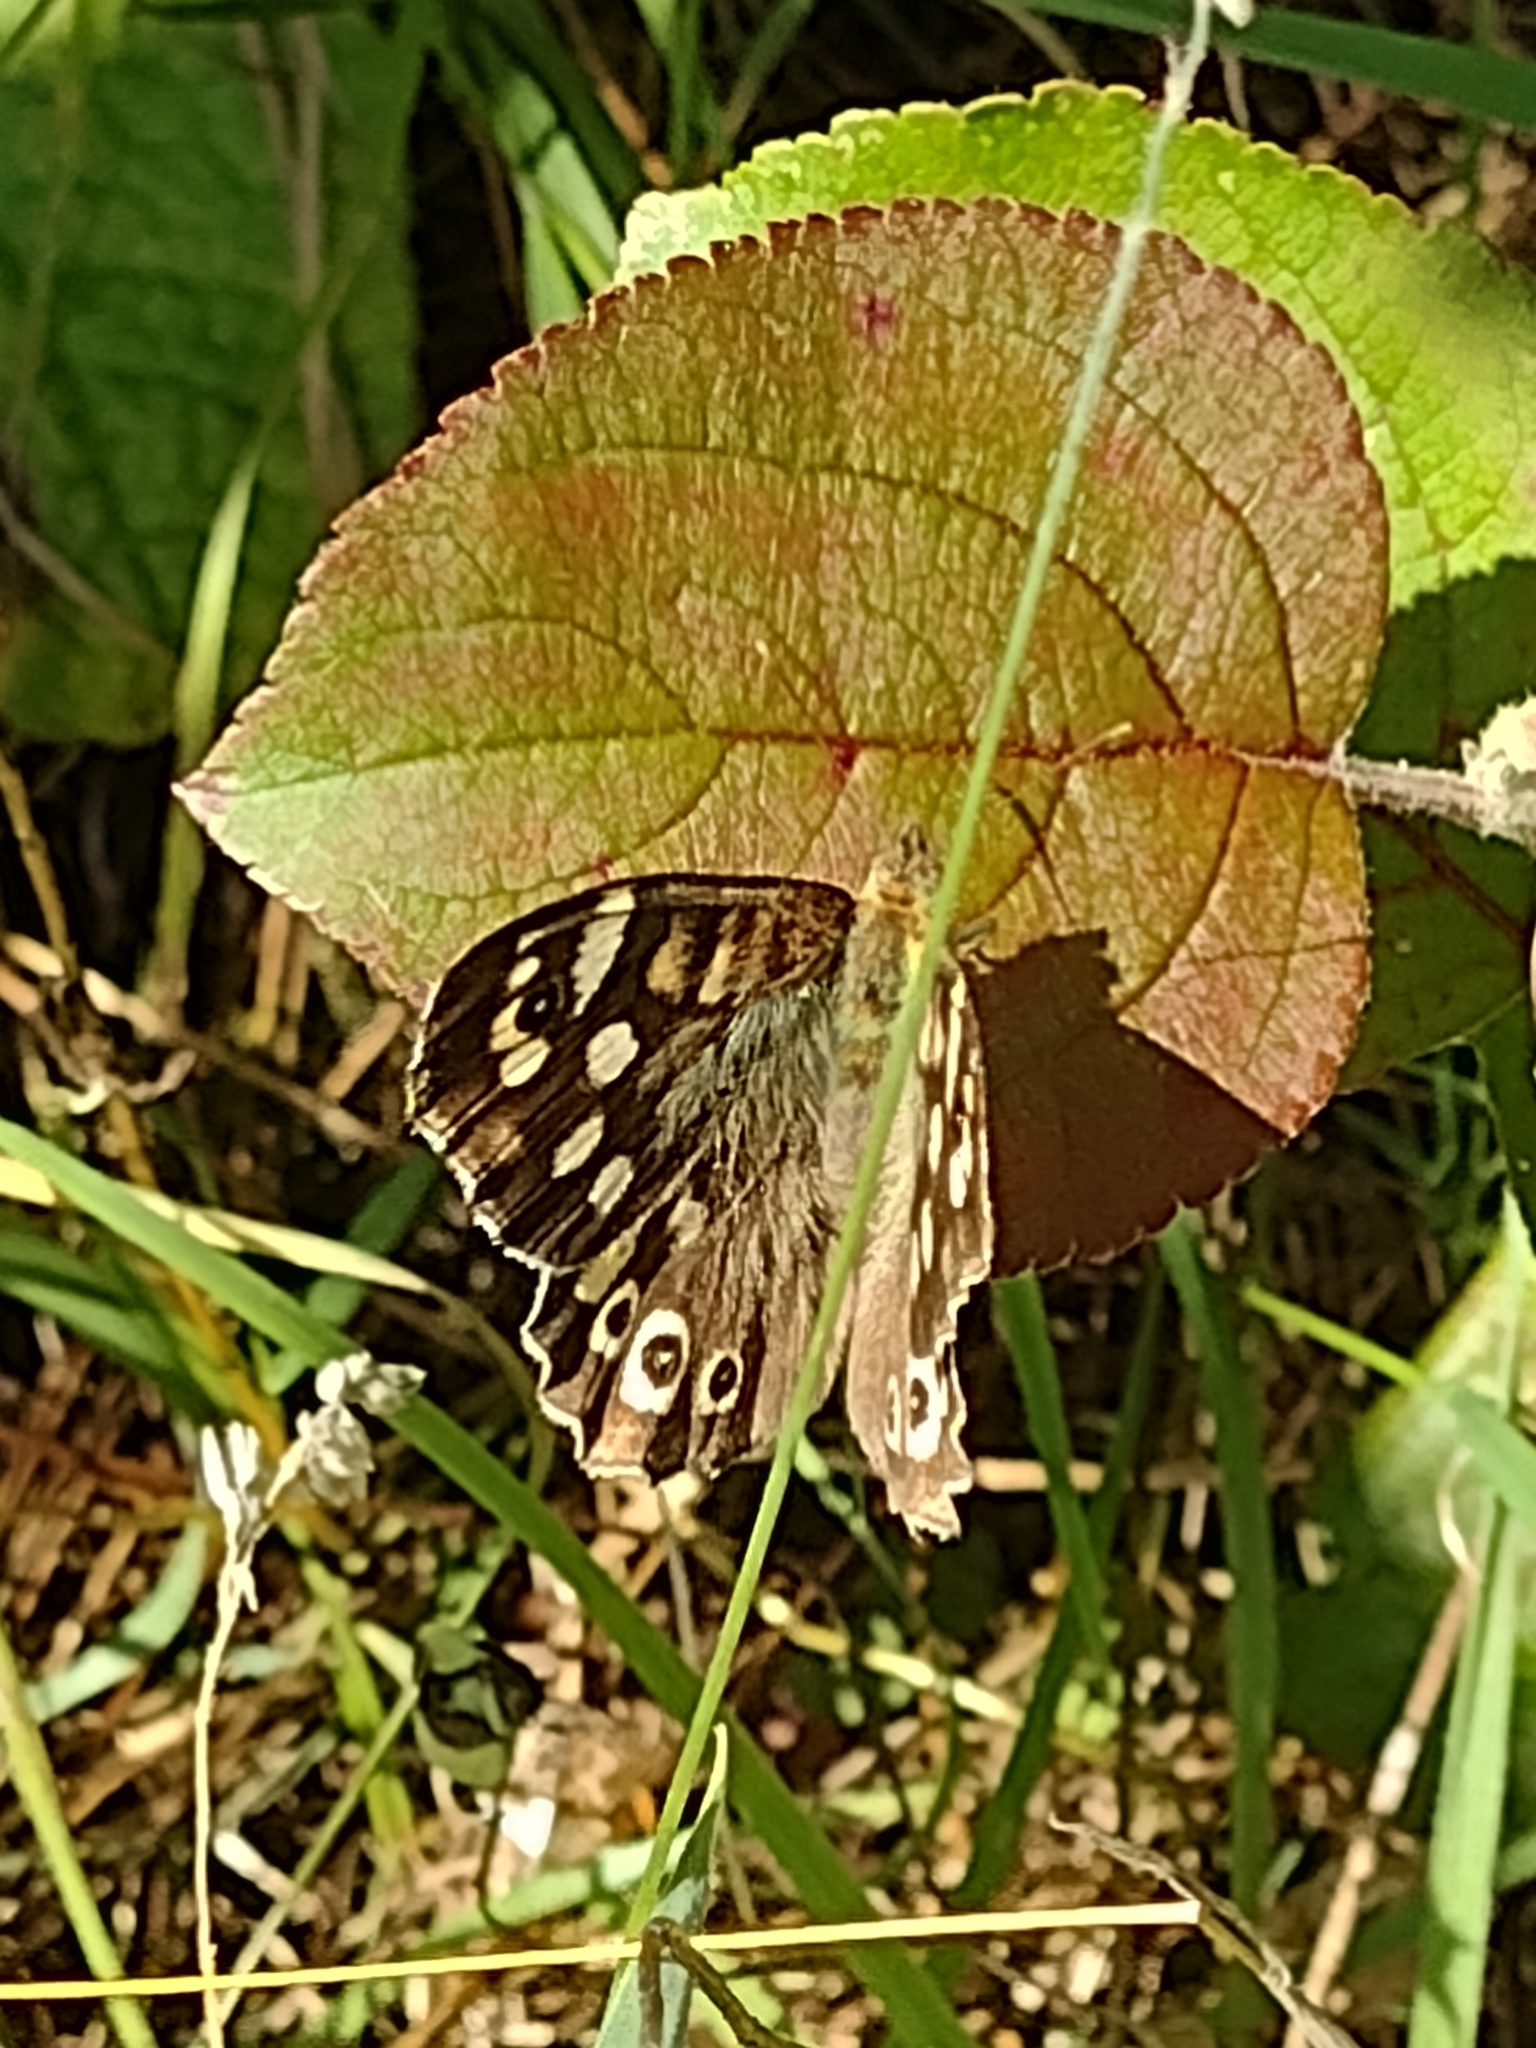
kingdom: Animalia
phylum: Arthropoda
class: Insecta
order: Lepidoptera
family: Nymphalidae
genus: Pararge
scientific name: Pararge aegeria
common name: Speckled wood
